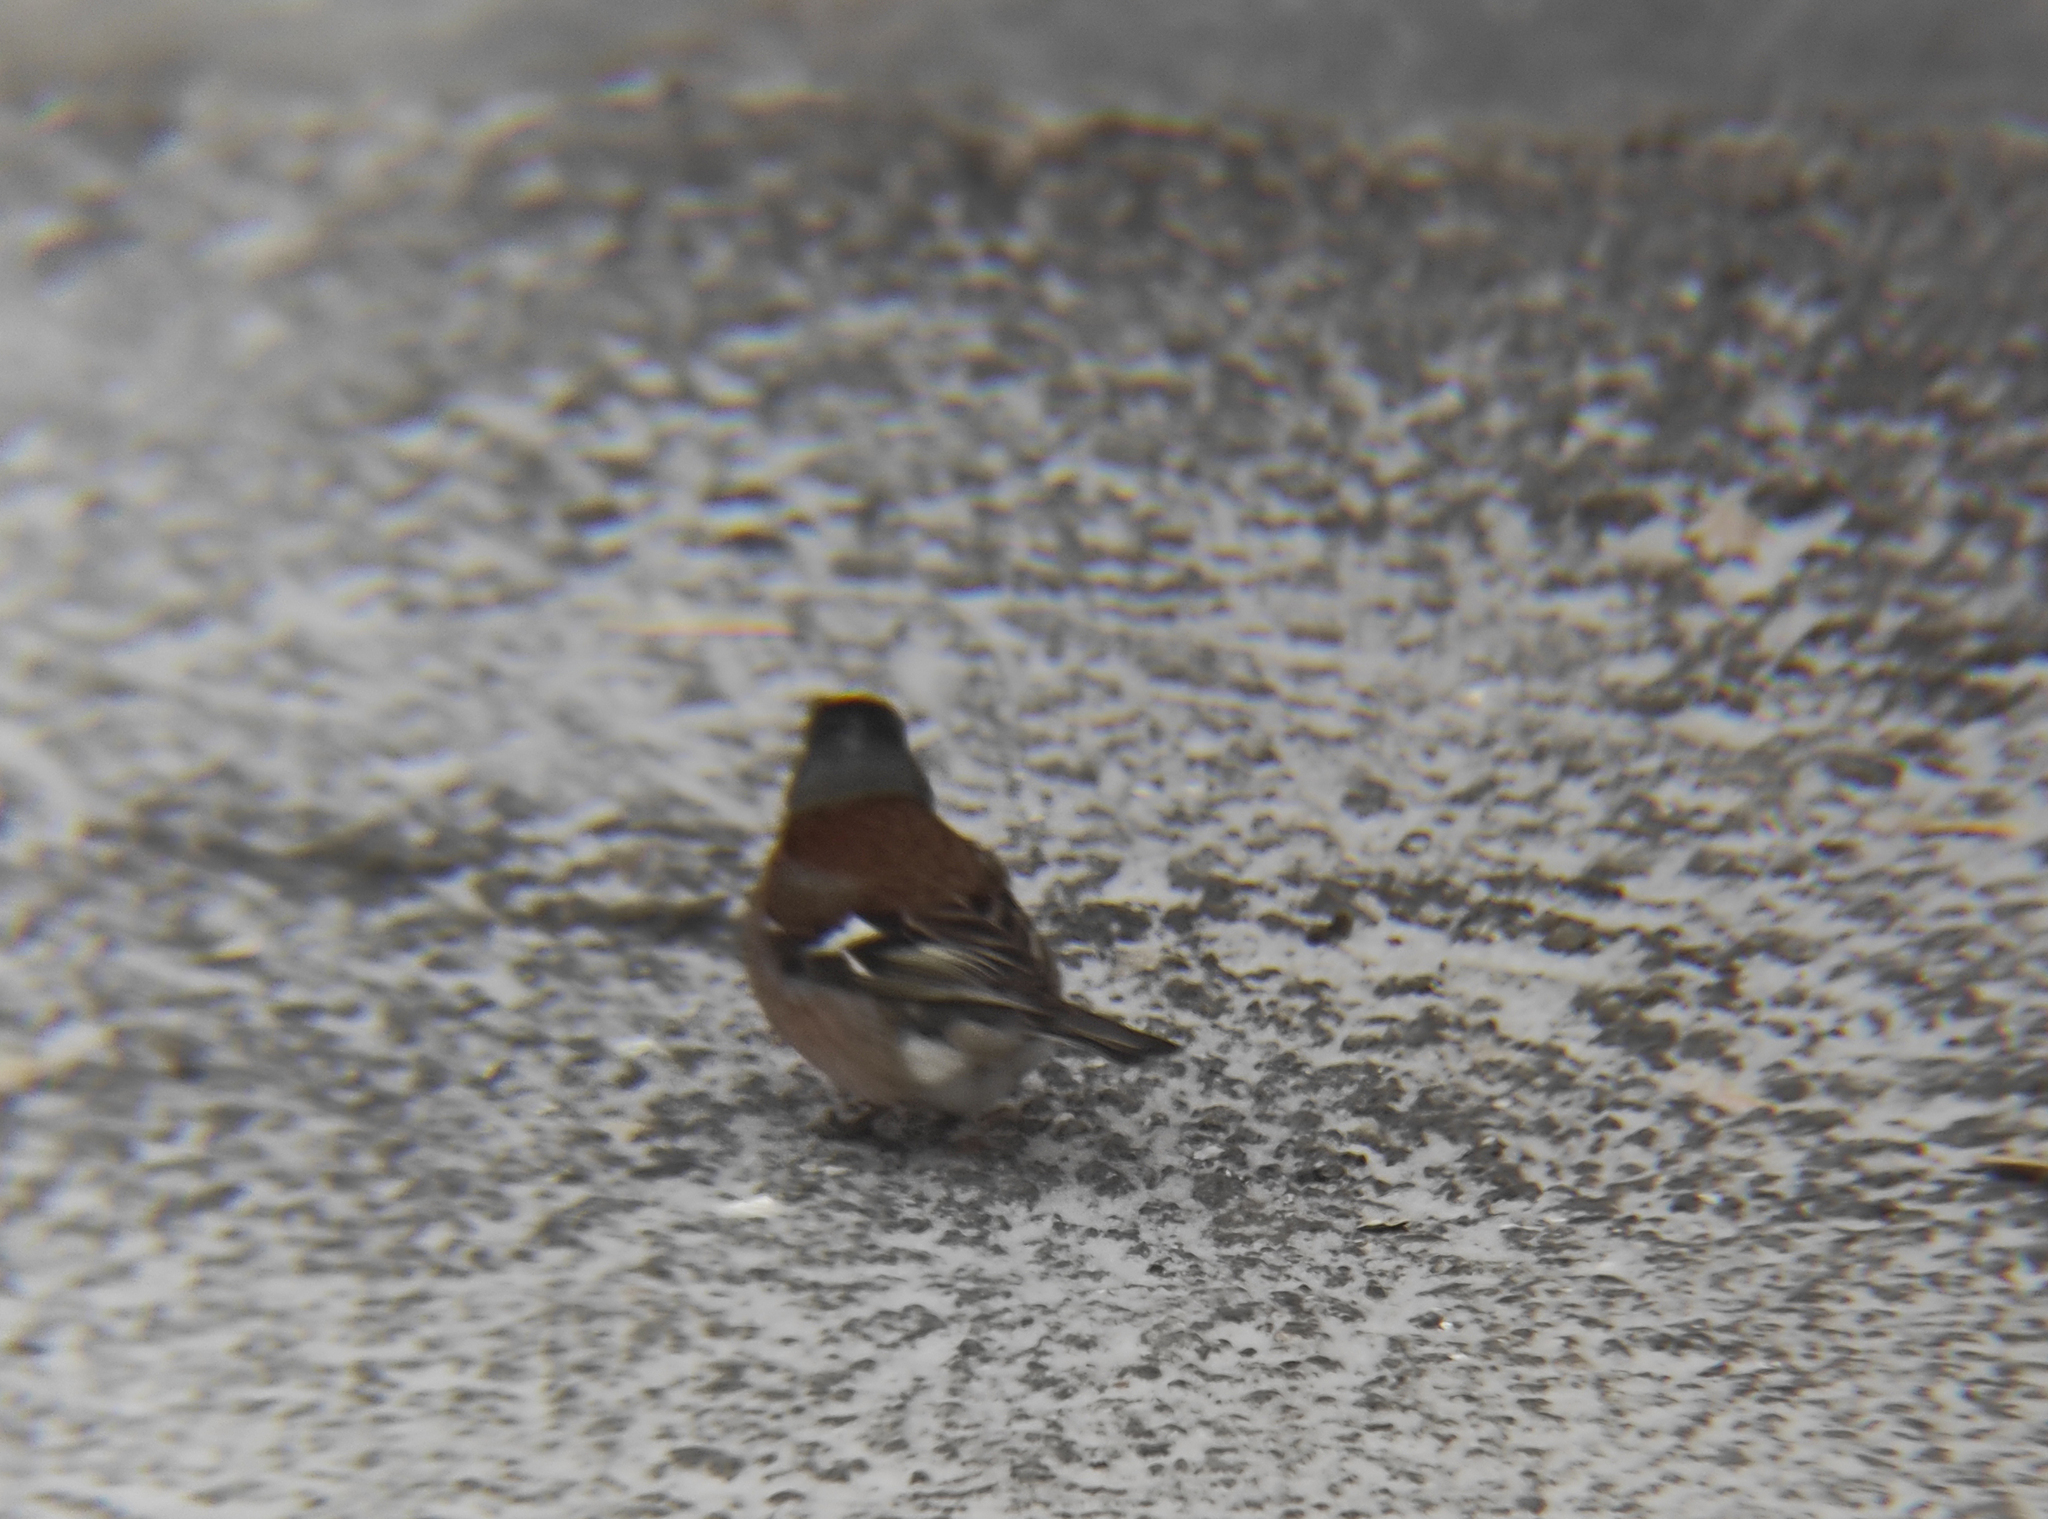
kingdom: Animalia
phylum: Chordata
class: Aves
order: Passeriformes
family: Fringillidae
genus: Fringilla
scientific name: Fringilla coelebs
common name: Common chaffinch
